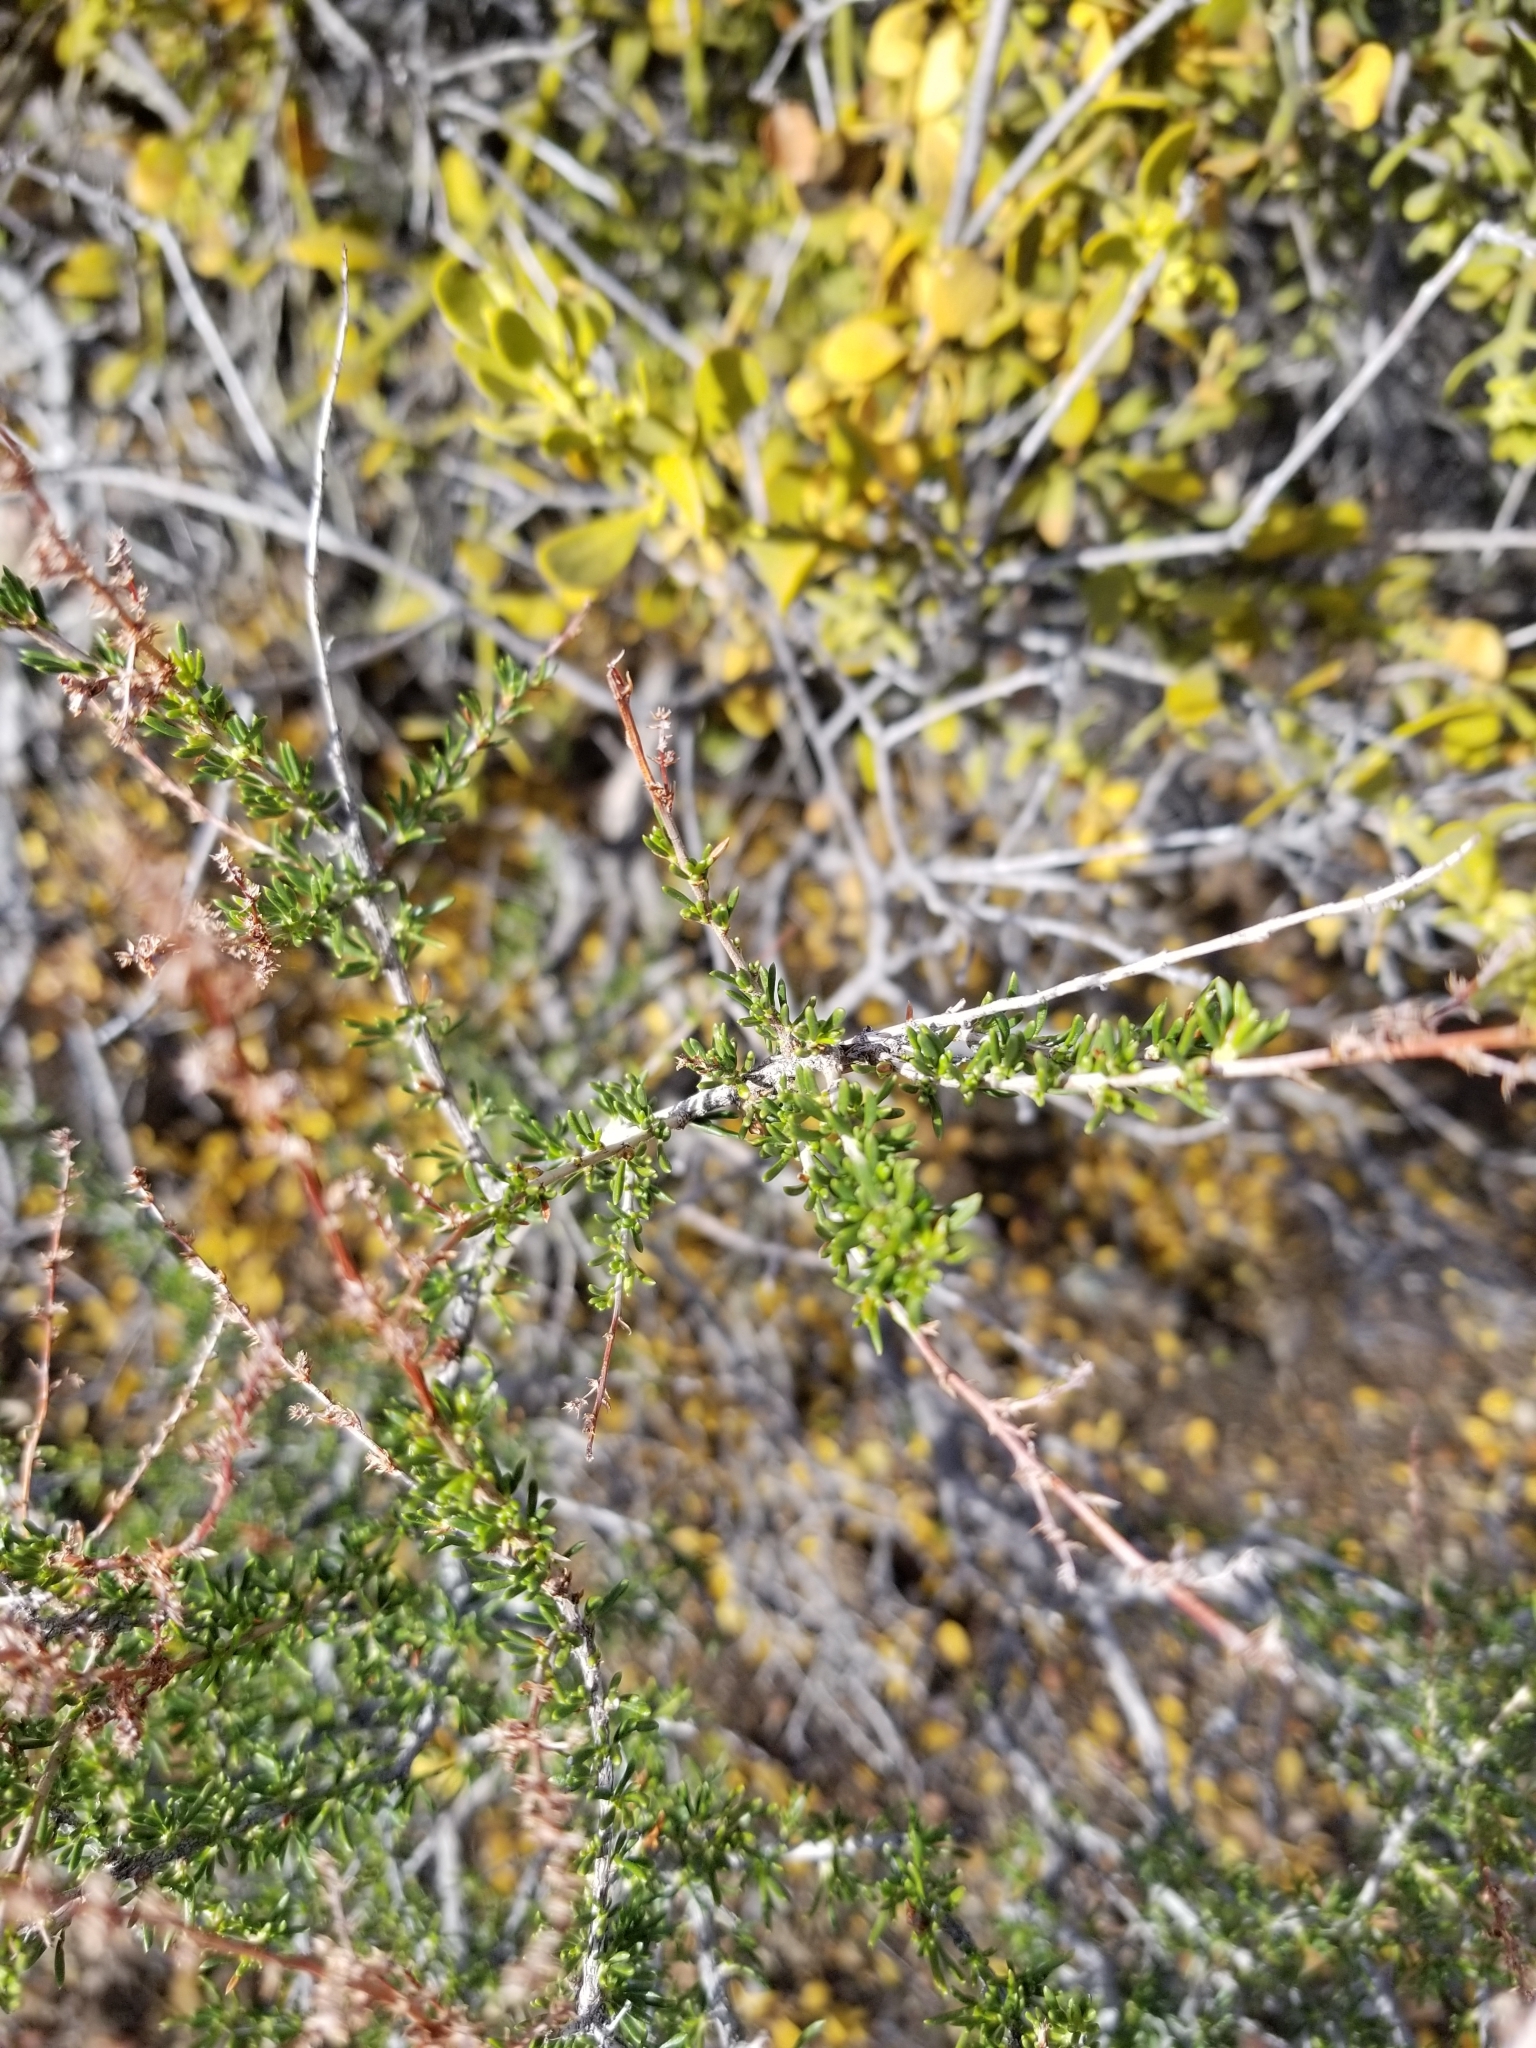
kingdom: Plantae
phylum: Tracheophyta
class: Magnoliopsida
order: Santalales
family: Viscaceae
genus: Phoradendron
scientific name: Phoradendron leucarpum
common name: Pacific mistletoe
